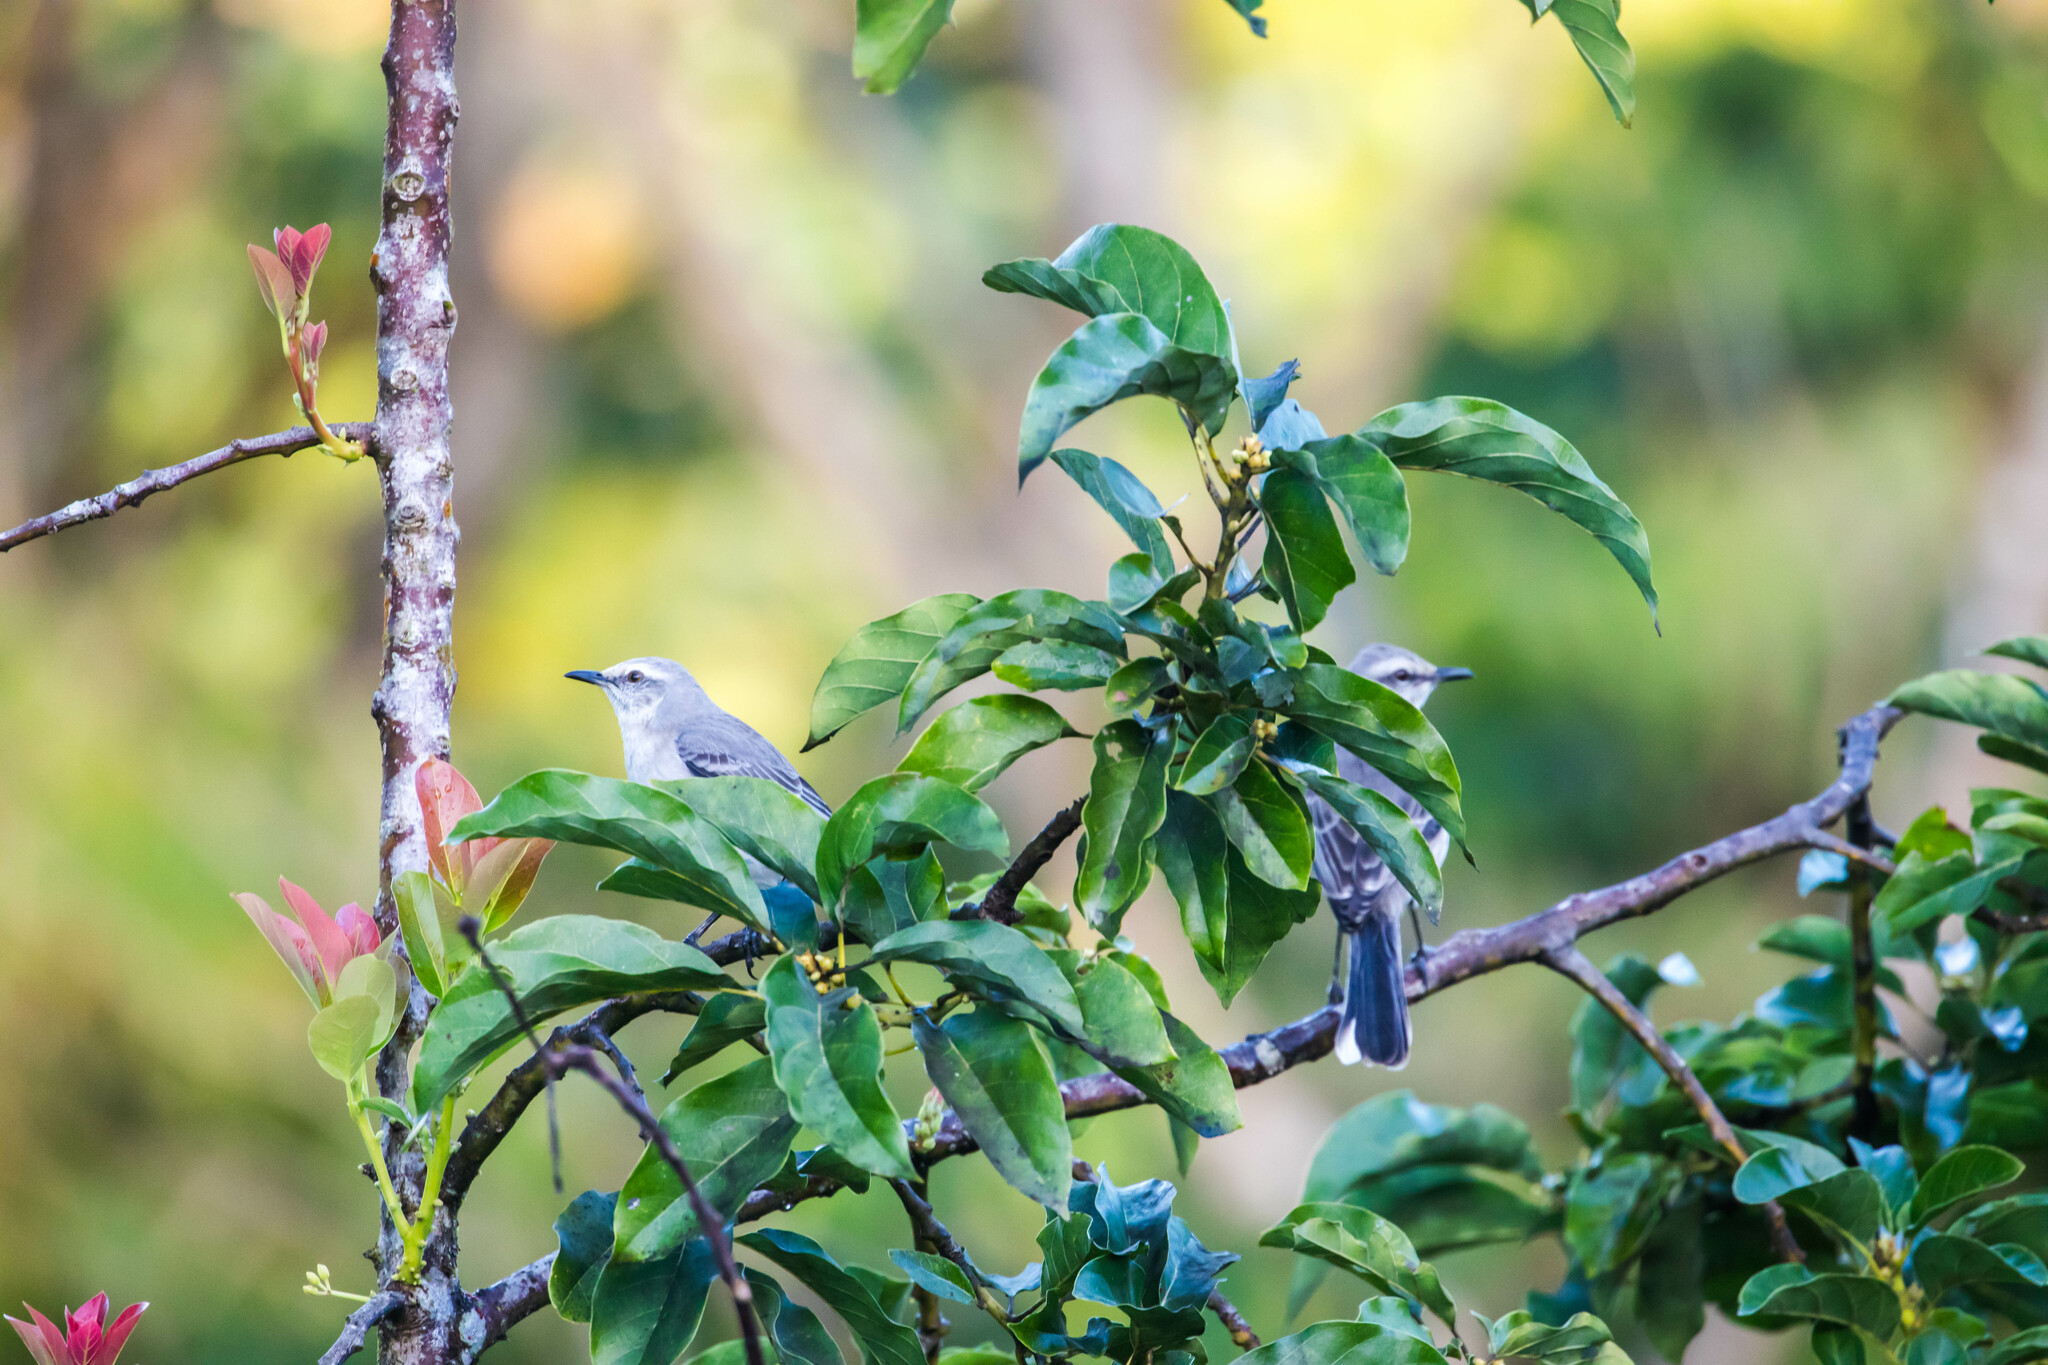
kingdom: Animalia
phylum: Chordata
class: Aves
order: Passeriformes
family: Mimidae
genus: Mimus
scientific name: Mimus gilvus
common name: Tropical mockingbird
